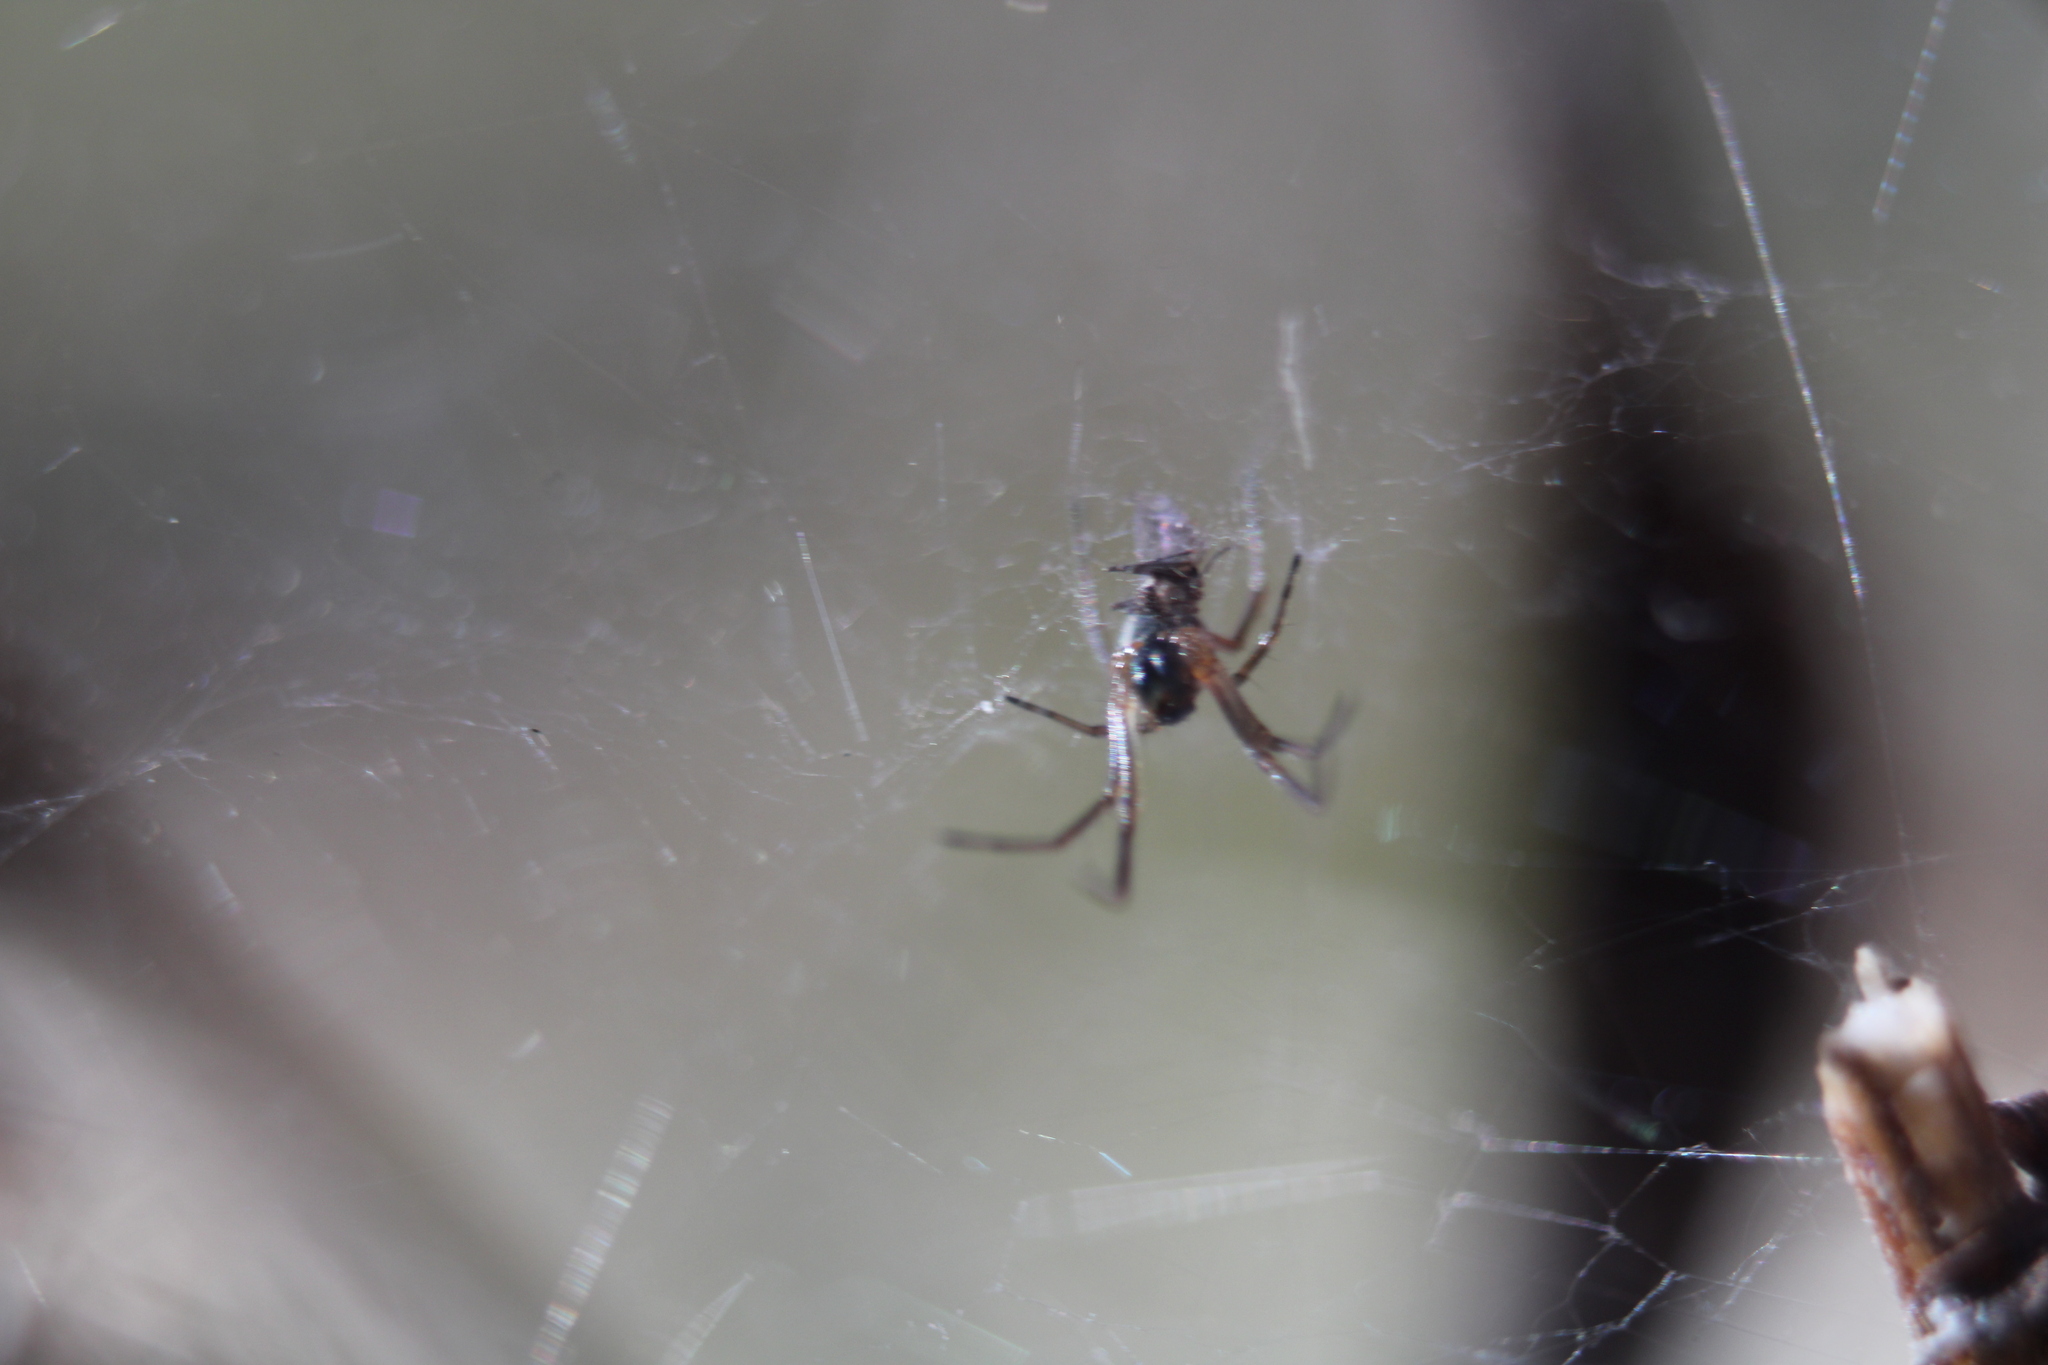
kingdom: Animalia
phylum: Arthropoda
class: Arachnida
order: Araneae
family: Linyphiidae
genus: Frontinella
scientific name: Frontinella pyramitela
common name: Bowl-and-doily spider
